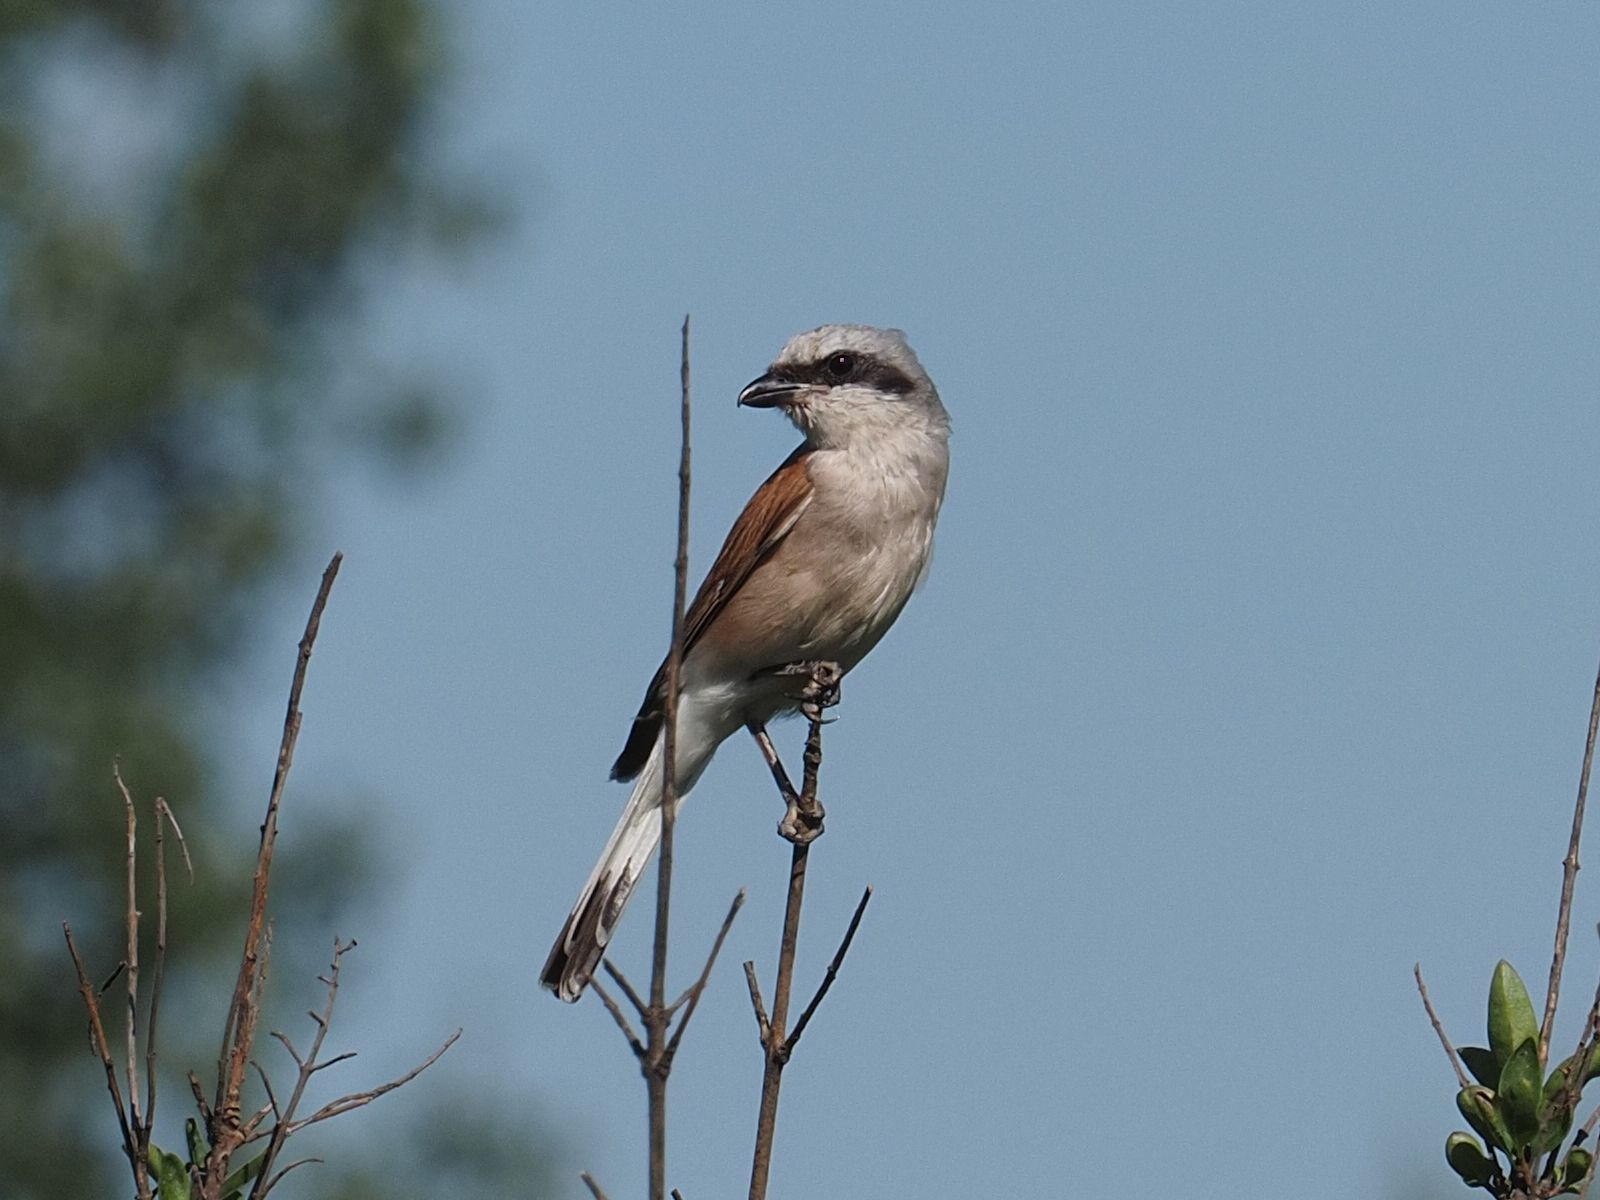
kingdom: Animalia
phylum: Chordata
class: Aves
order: Passeriformes
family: Laniidae
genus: Lanius
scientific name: Lanius collurio
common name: Red-backed shrike
